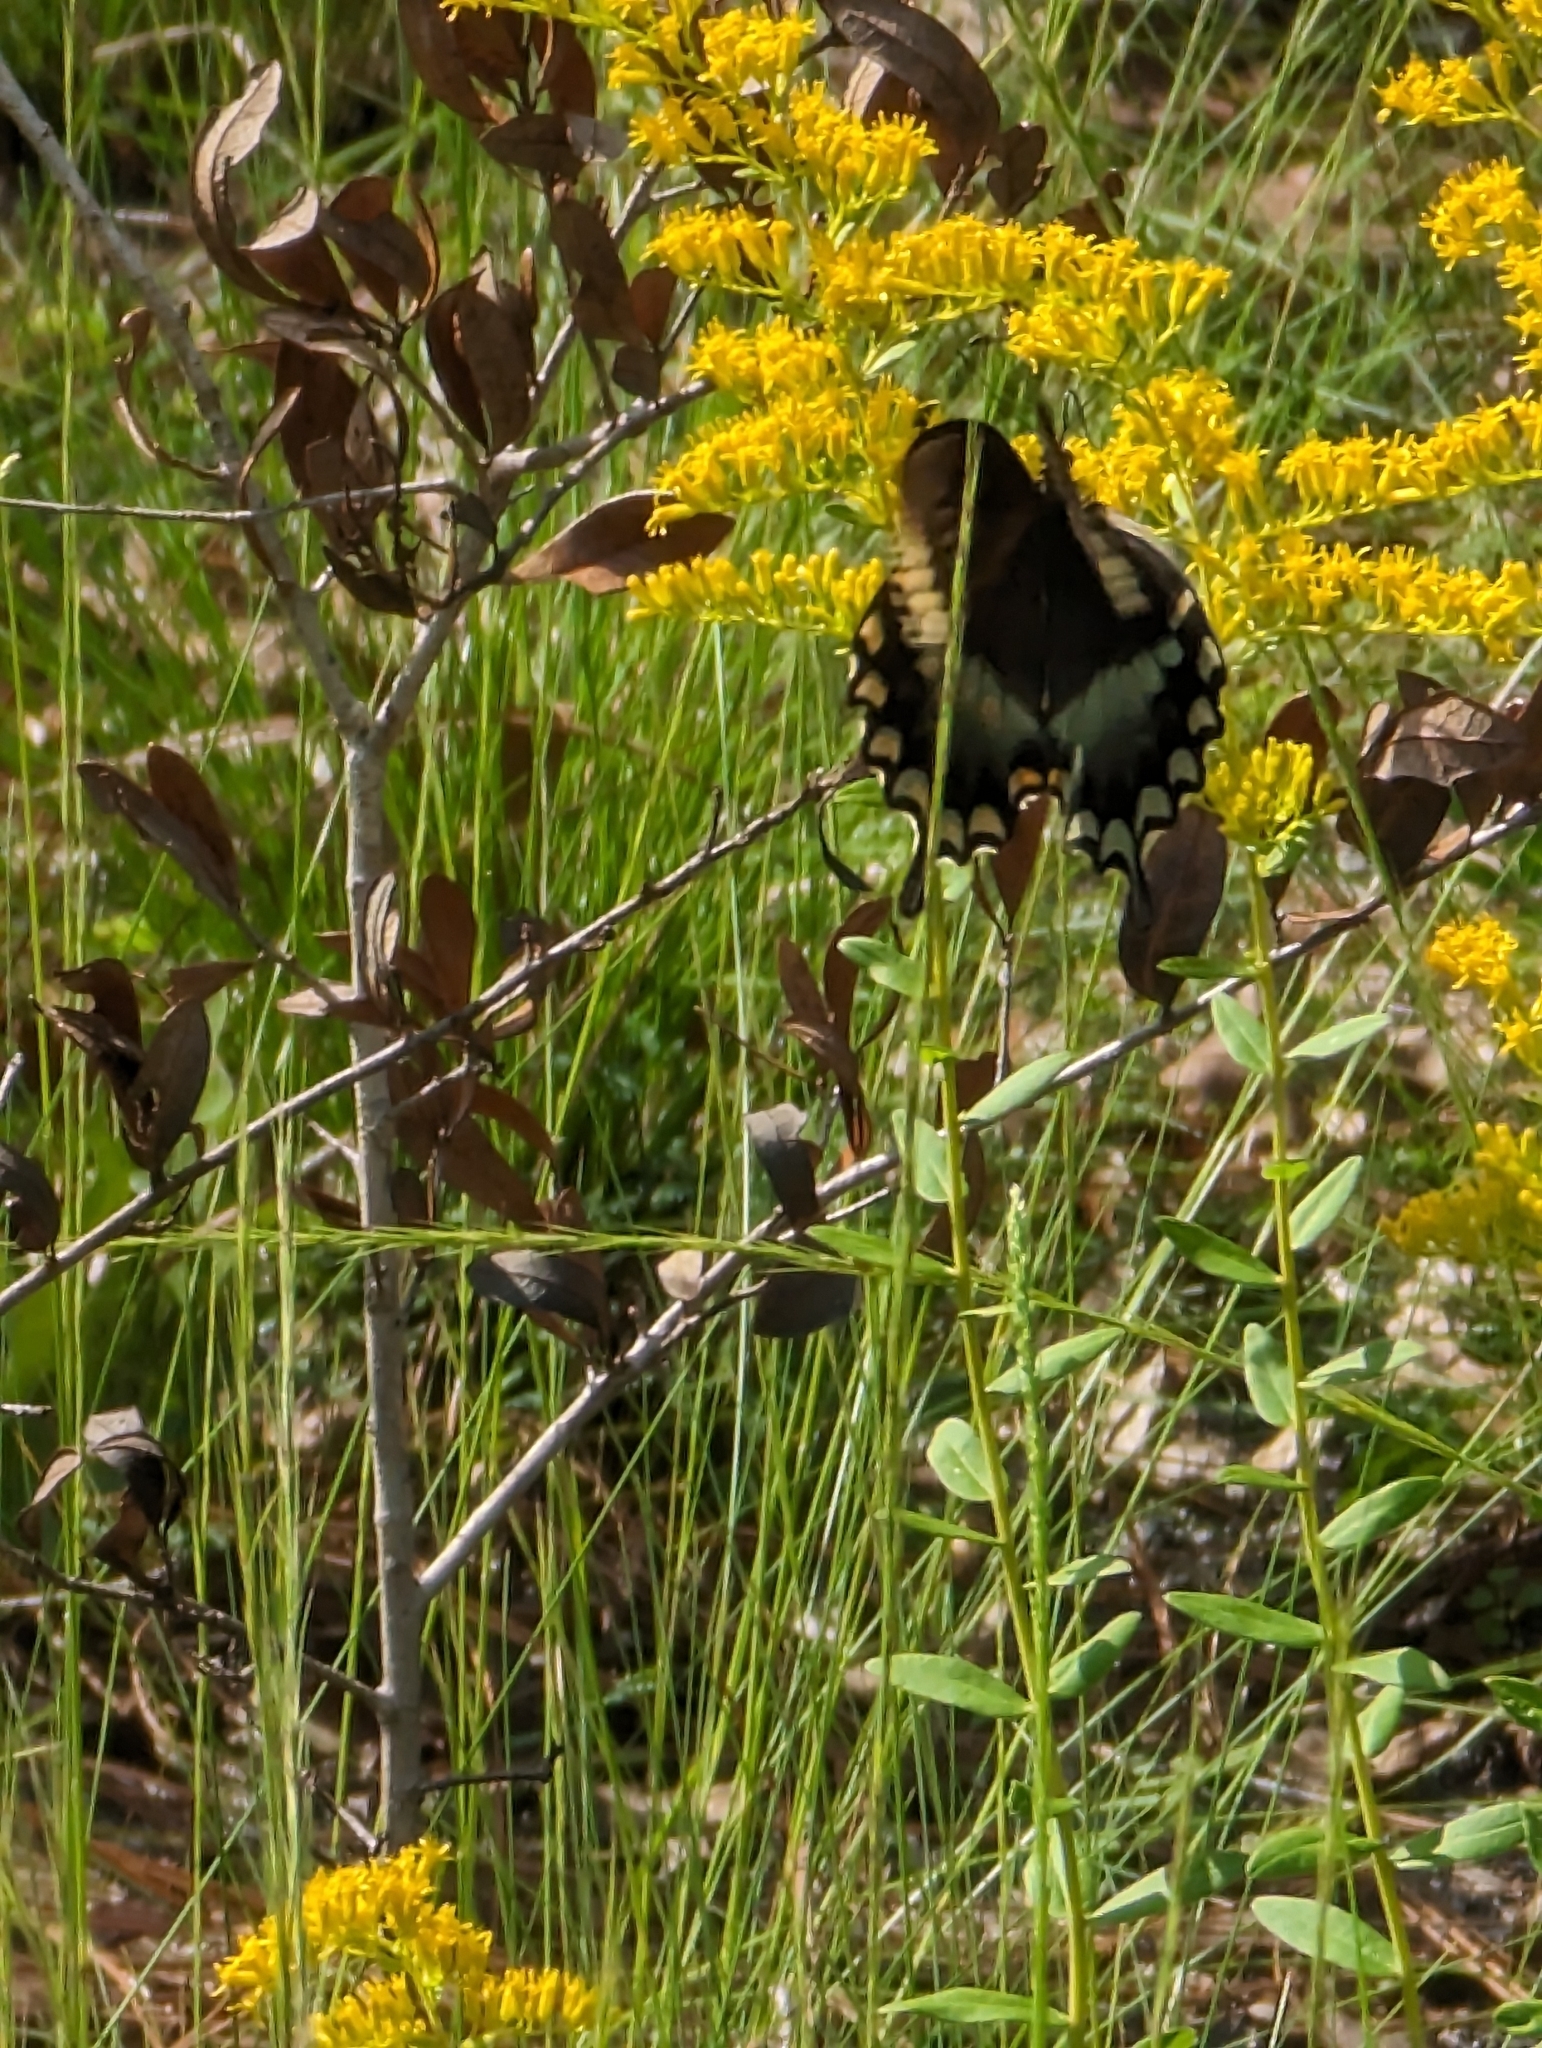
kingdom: Animalia
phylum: Arthropoda
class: Insecta
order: Lepidoptera
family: Papilionidae
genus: Papilio
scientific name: Papilio troilus
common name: Spicebush swallowtail
